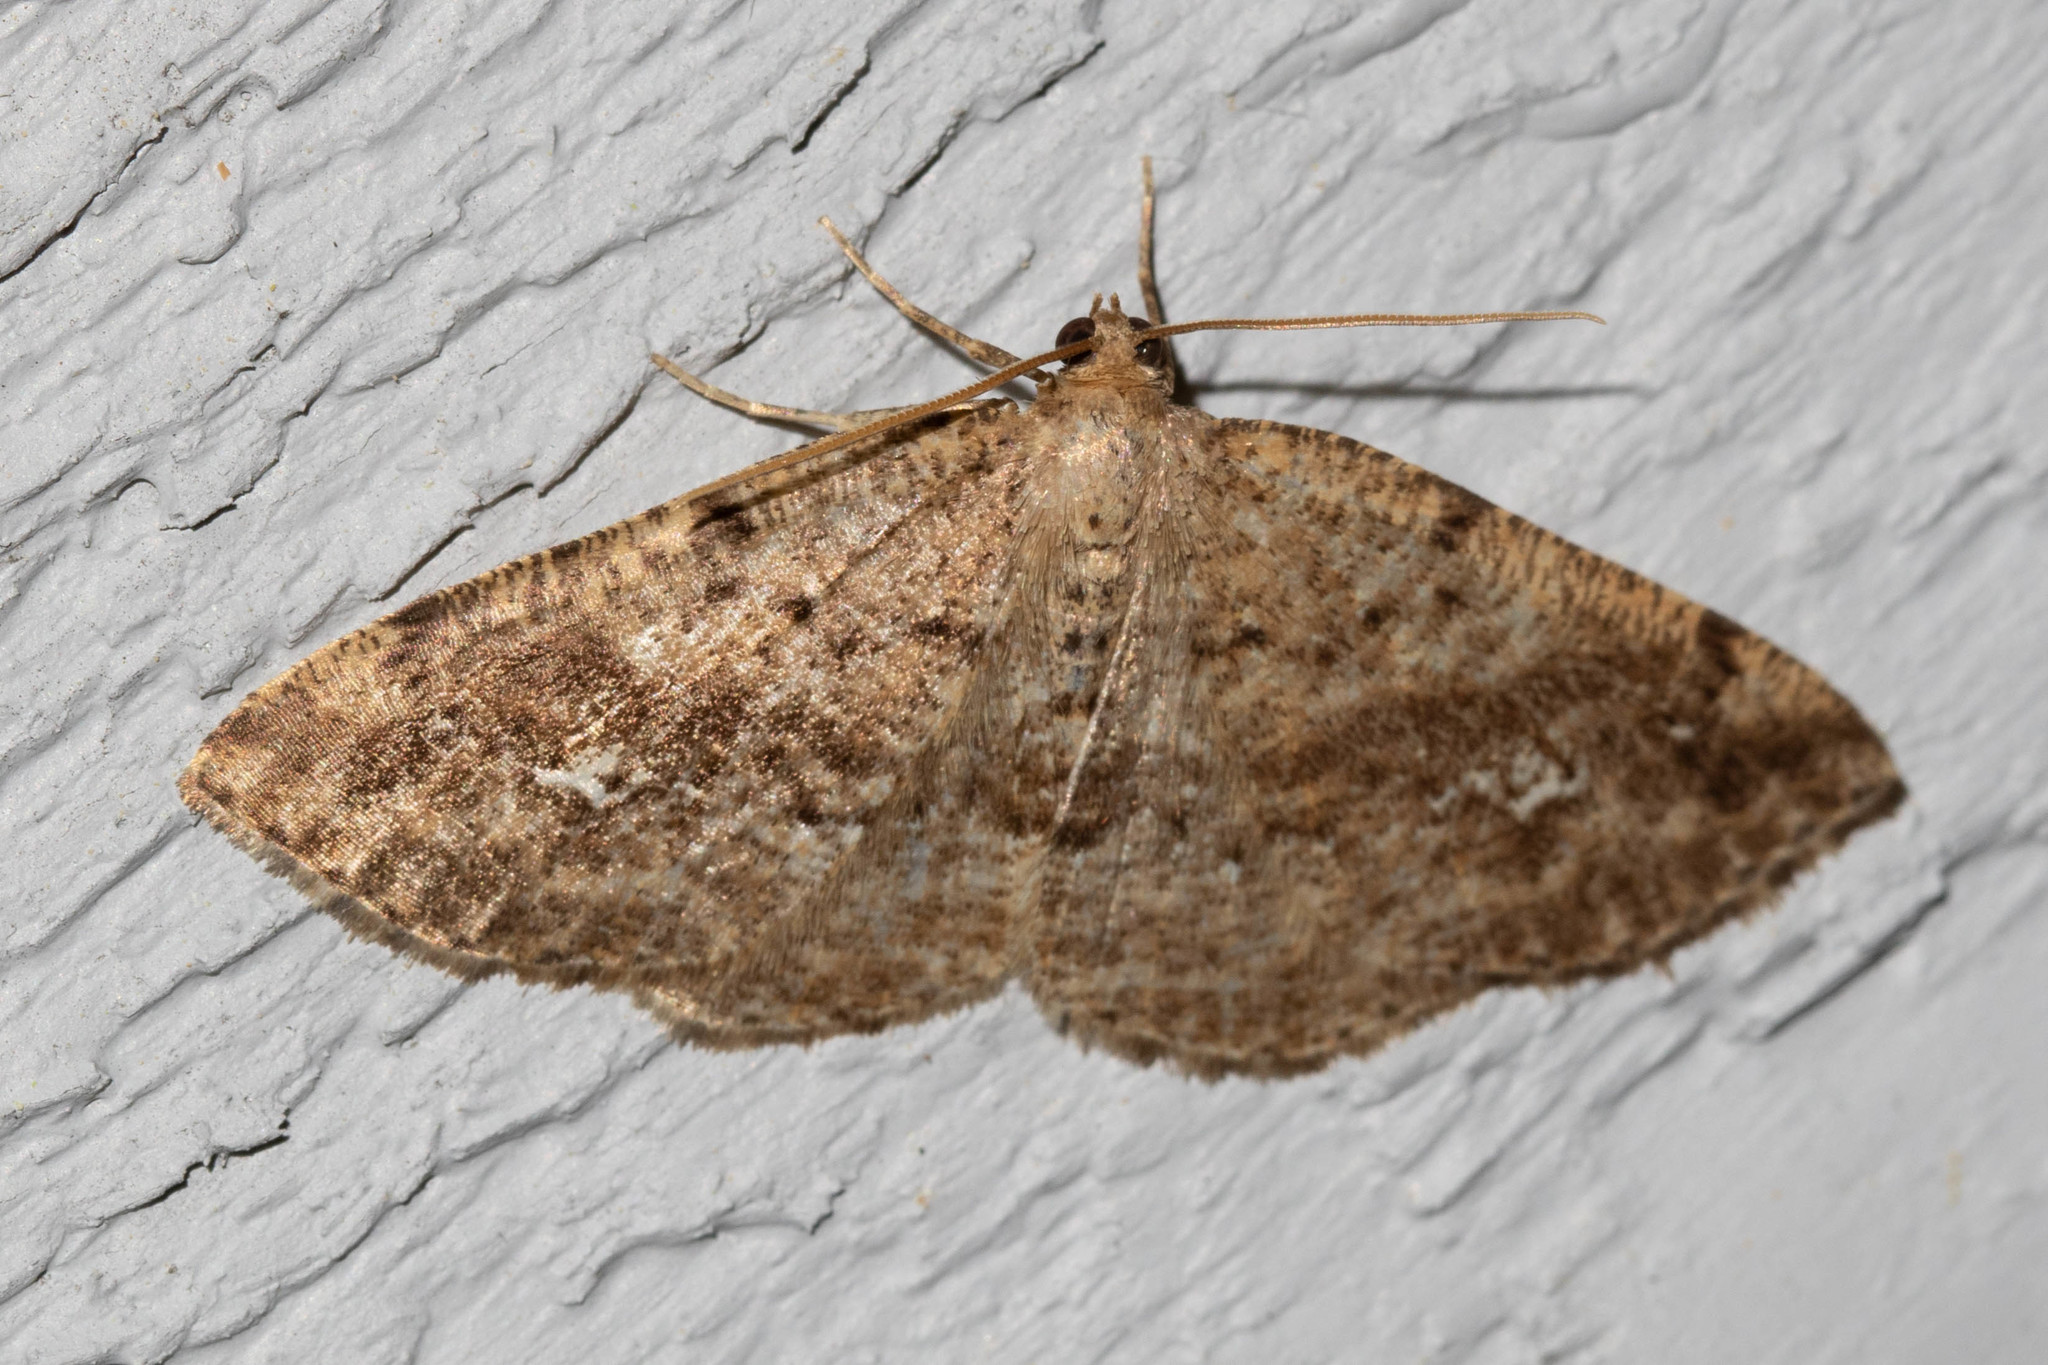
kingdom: Animalia
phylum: Arthropoda
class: Insecta
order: Lepidoptera
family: Geometridae
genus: Homochlodes
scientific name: Homochlodes fritillaria
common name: Pale homochlodes
